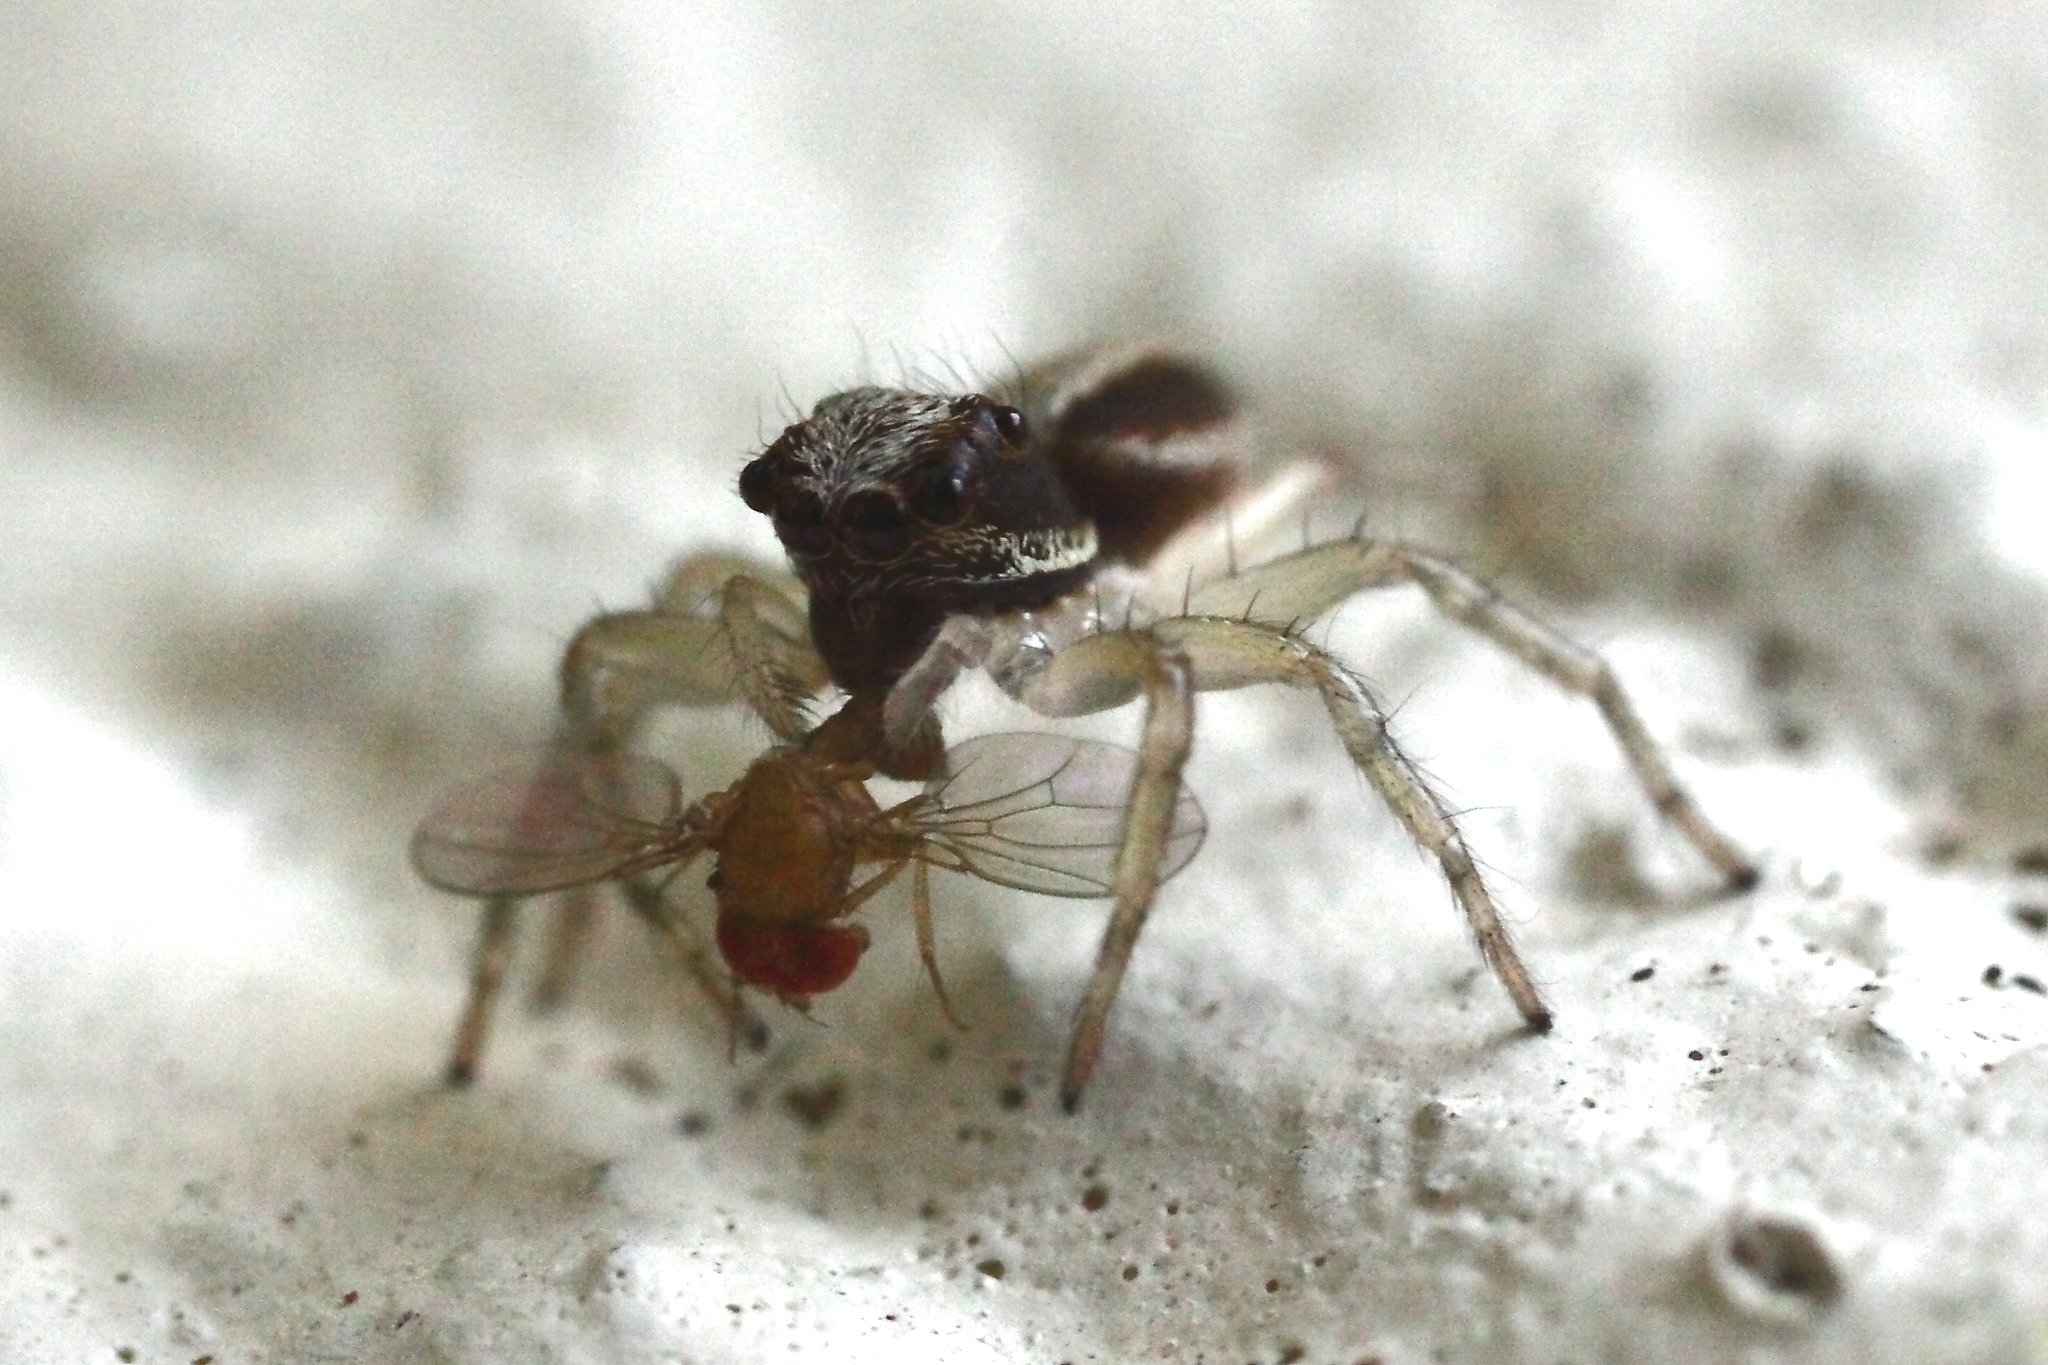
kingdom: Animalia
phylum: Arthropoda
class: Arachnida
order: Araneae
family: Salticidae
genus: Zenodorus
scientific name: Zenodorus swiftorum
